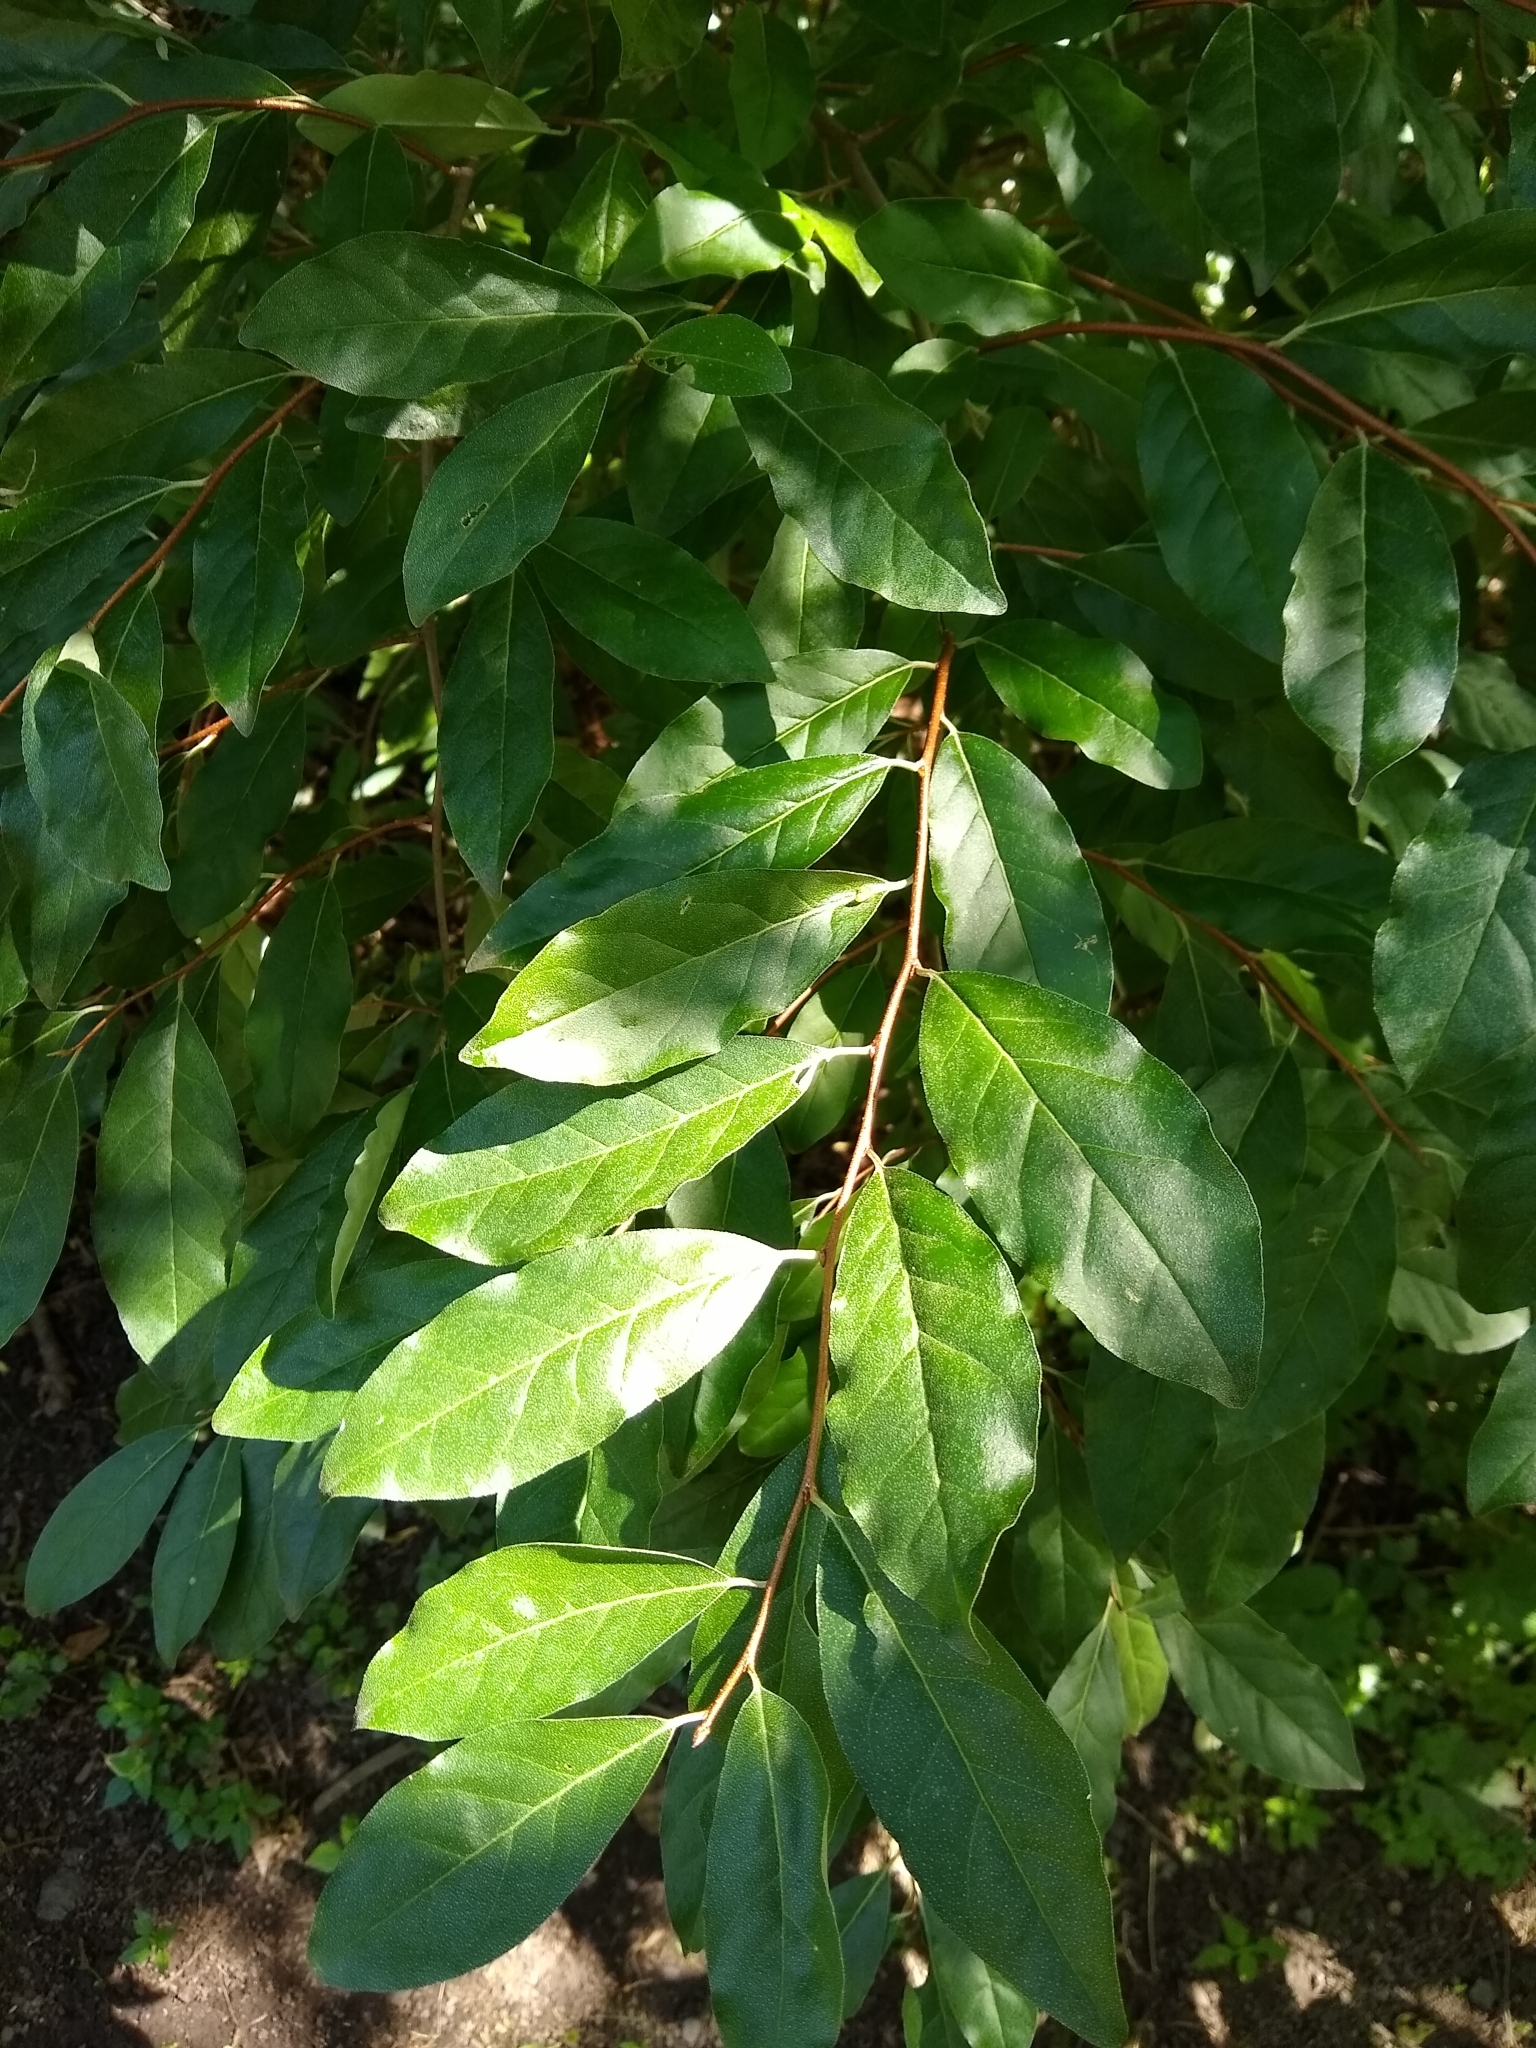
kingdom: Plantae
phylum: Tracheophyta
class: Magnoliopsida
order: Rosales
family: Elaeagnaceae
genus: Elaeagnus
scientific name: Elaeagnus umbellata
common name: Autumn olive
